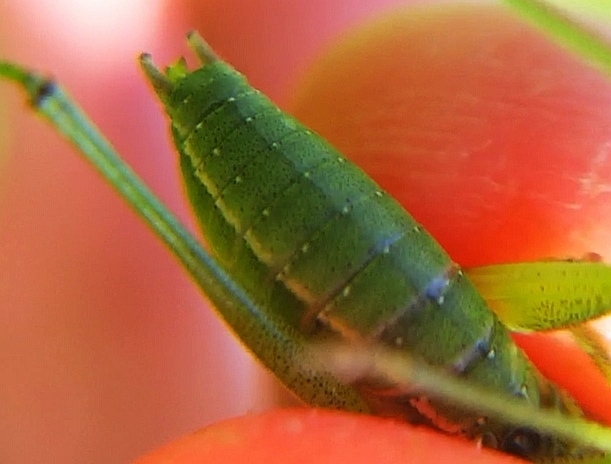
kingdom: Animalia
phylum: Arthropoda
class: Insecta
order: Orthoptera
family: Tettigoniidae
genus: Leptophyes
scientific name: Leptophyes boscii
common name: Balkan speckled bush-cricket
